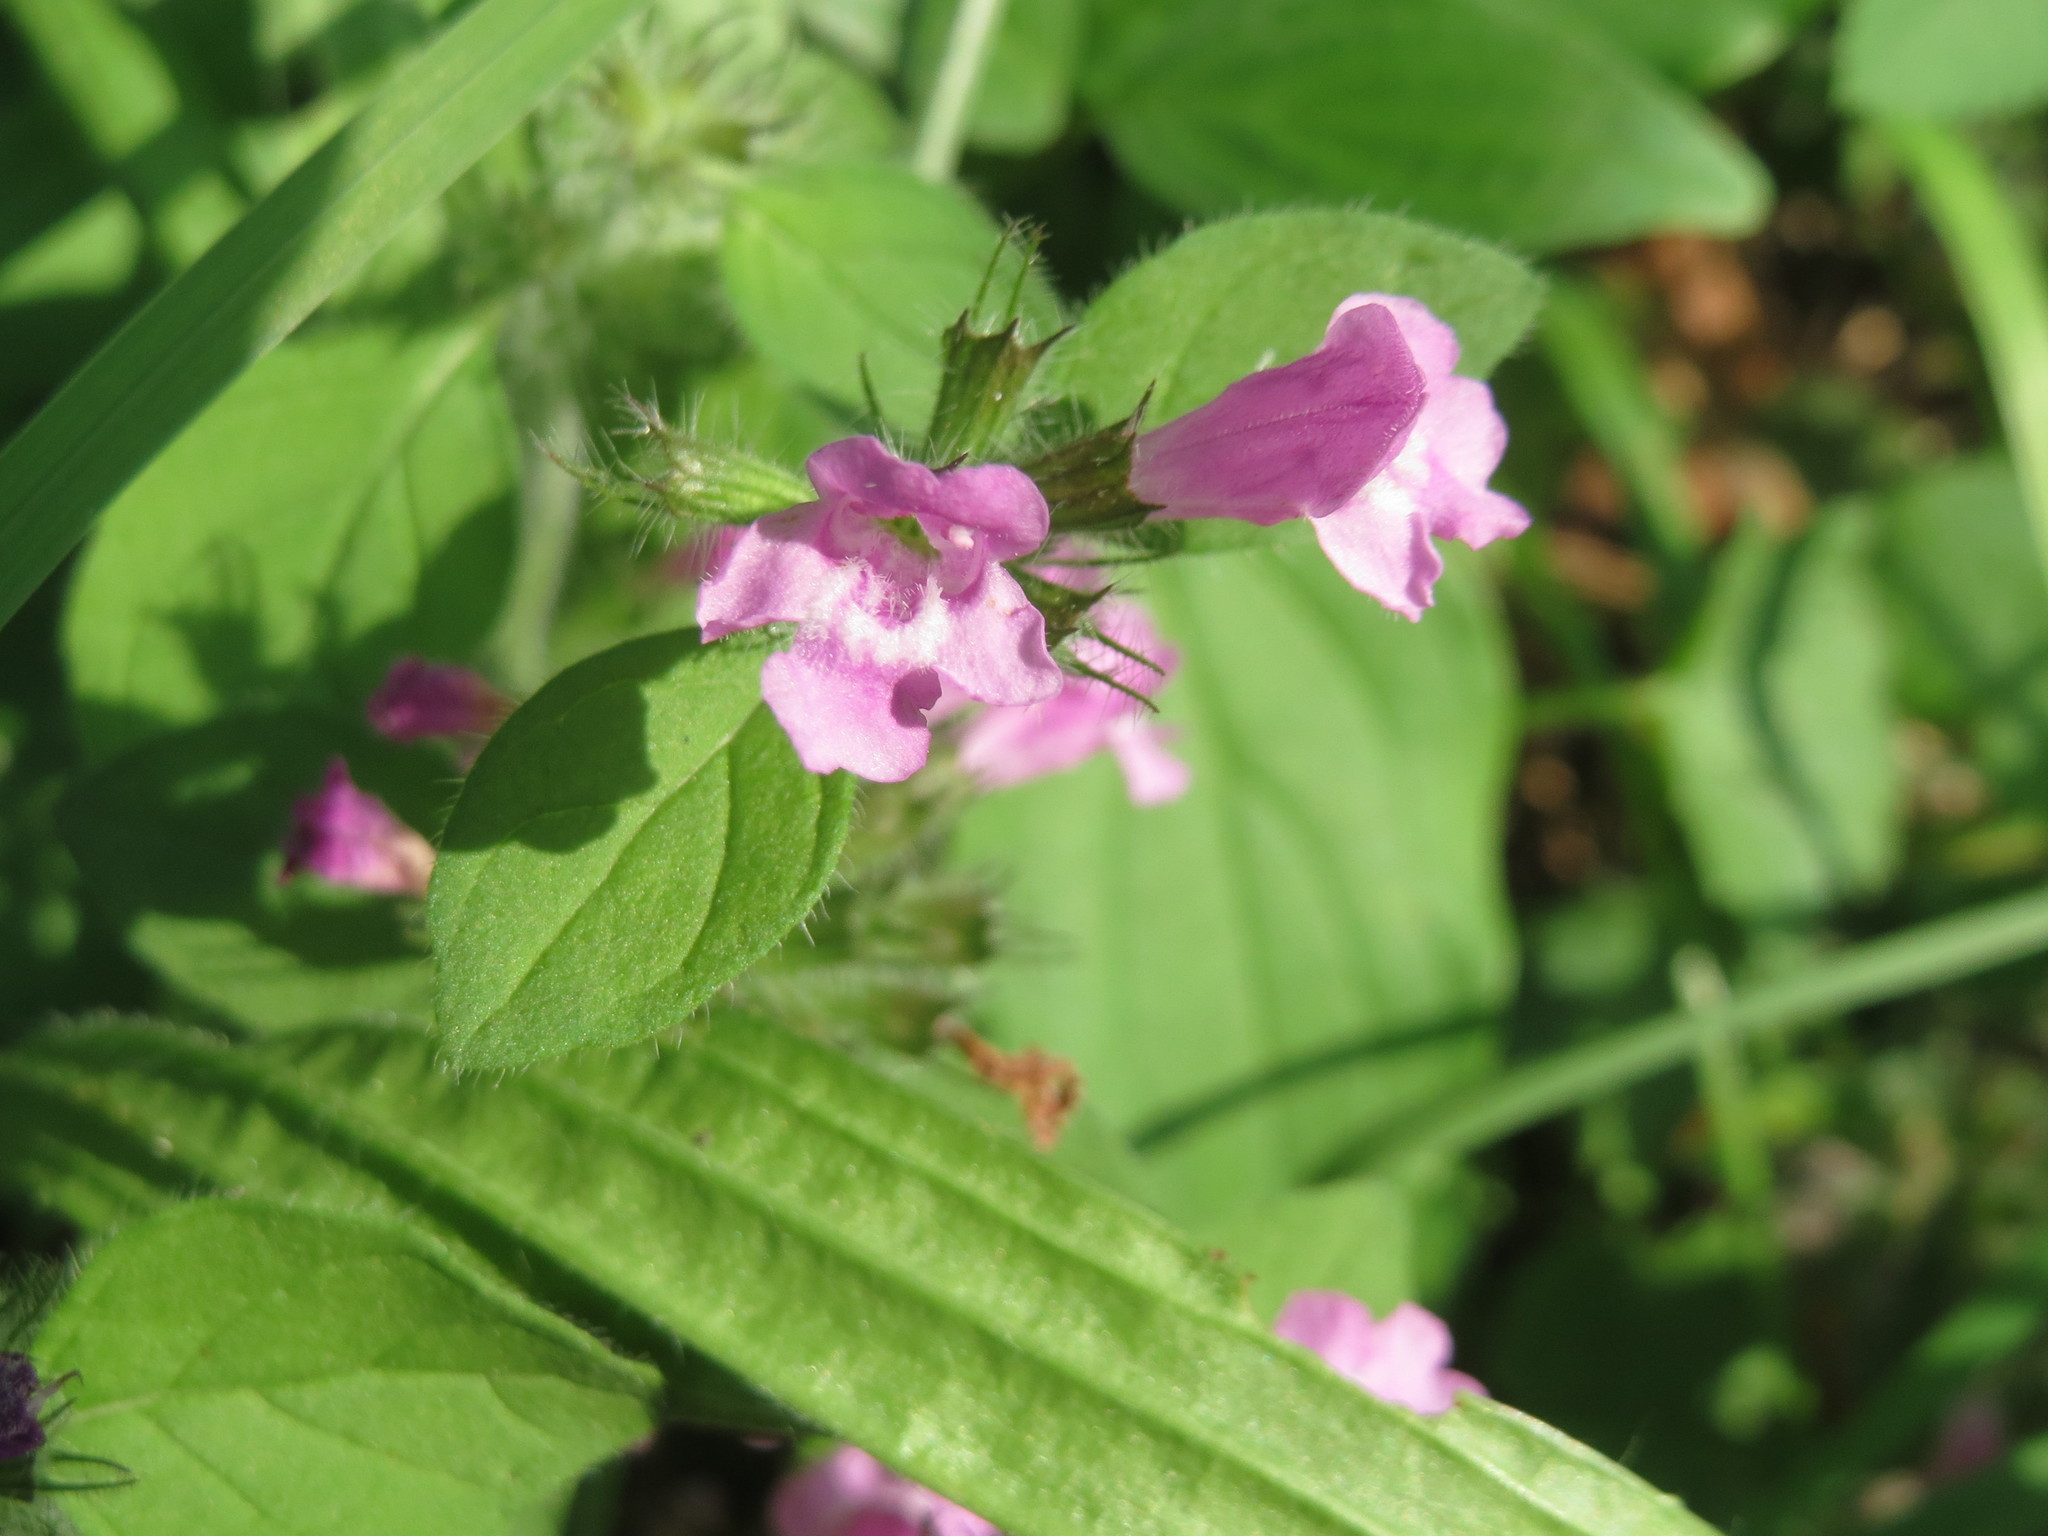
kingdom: Plantae
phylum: Tracheophyta
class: Magnoliopsida
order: Lamiales
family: Lamiaceae
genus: Clinopodium
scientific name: Clinopodium vulgare
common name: Wild basil
